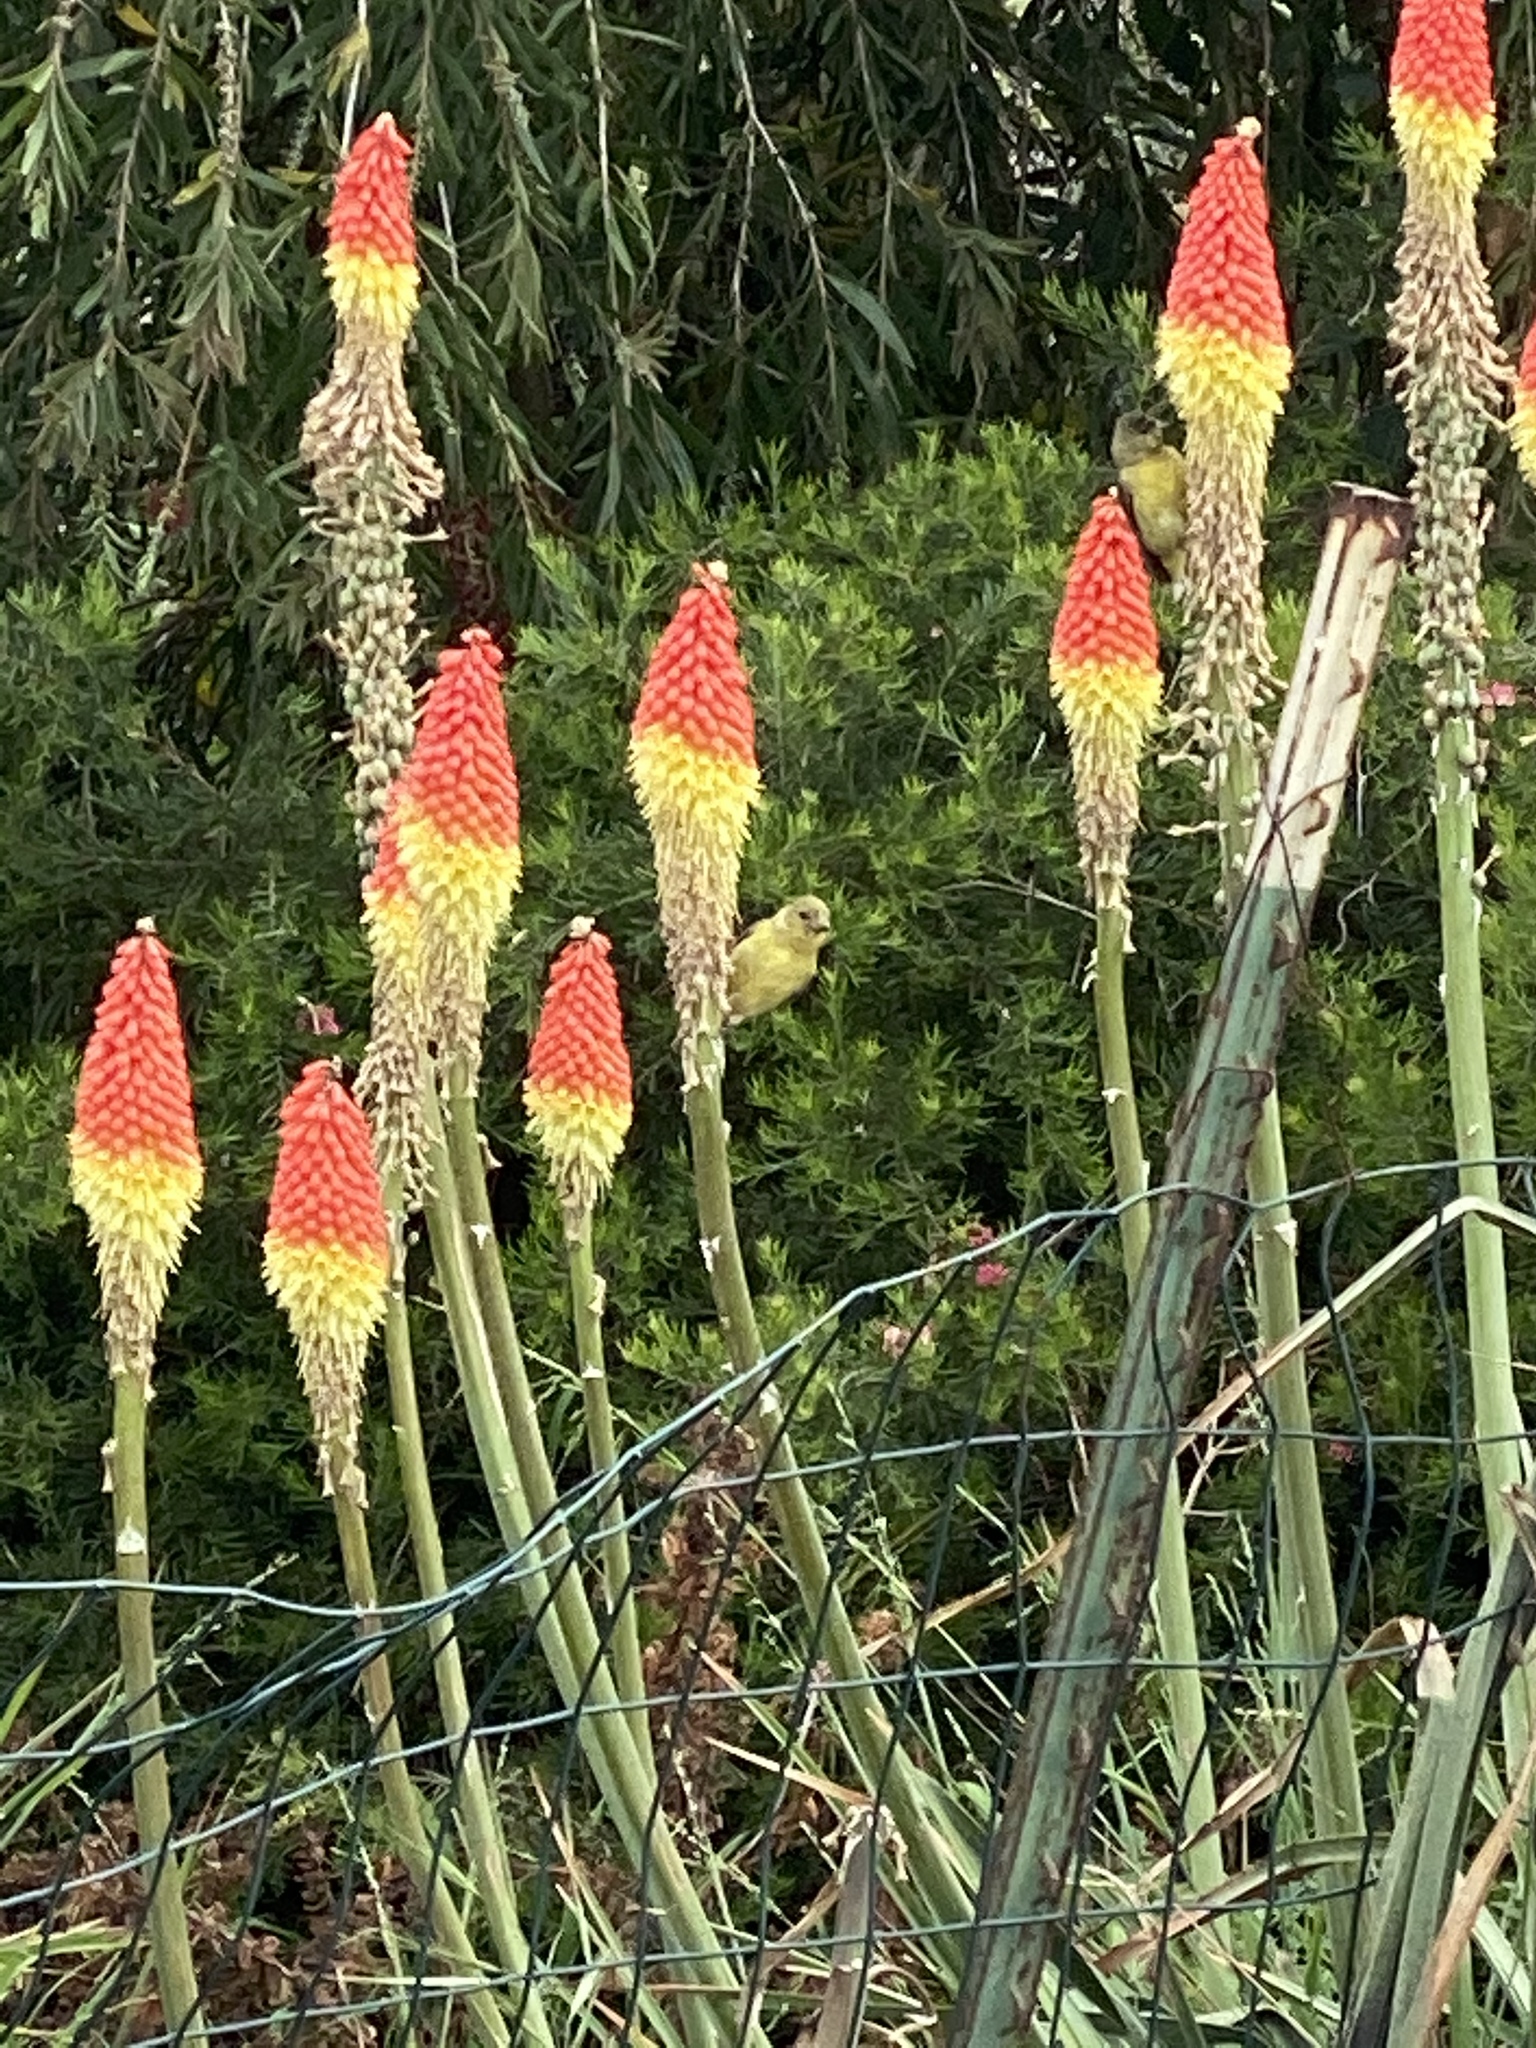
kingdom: Animalia
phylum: Chordata
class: Aves
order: Passeriformes
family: Fringillidae
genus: Spinus
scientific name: Spinus psaltria
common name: Lesser goldfinch
